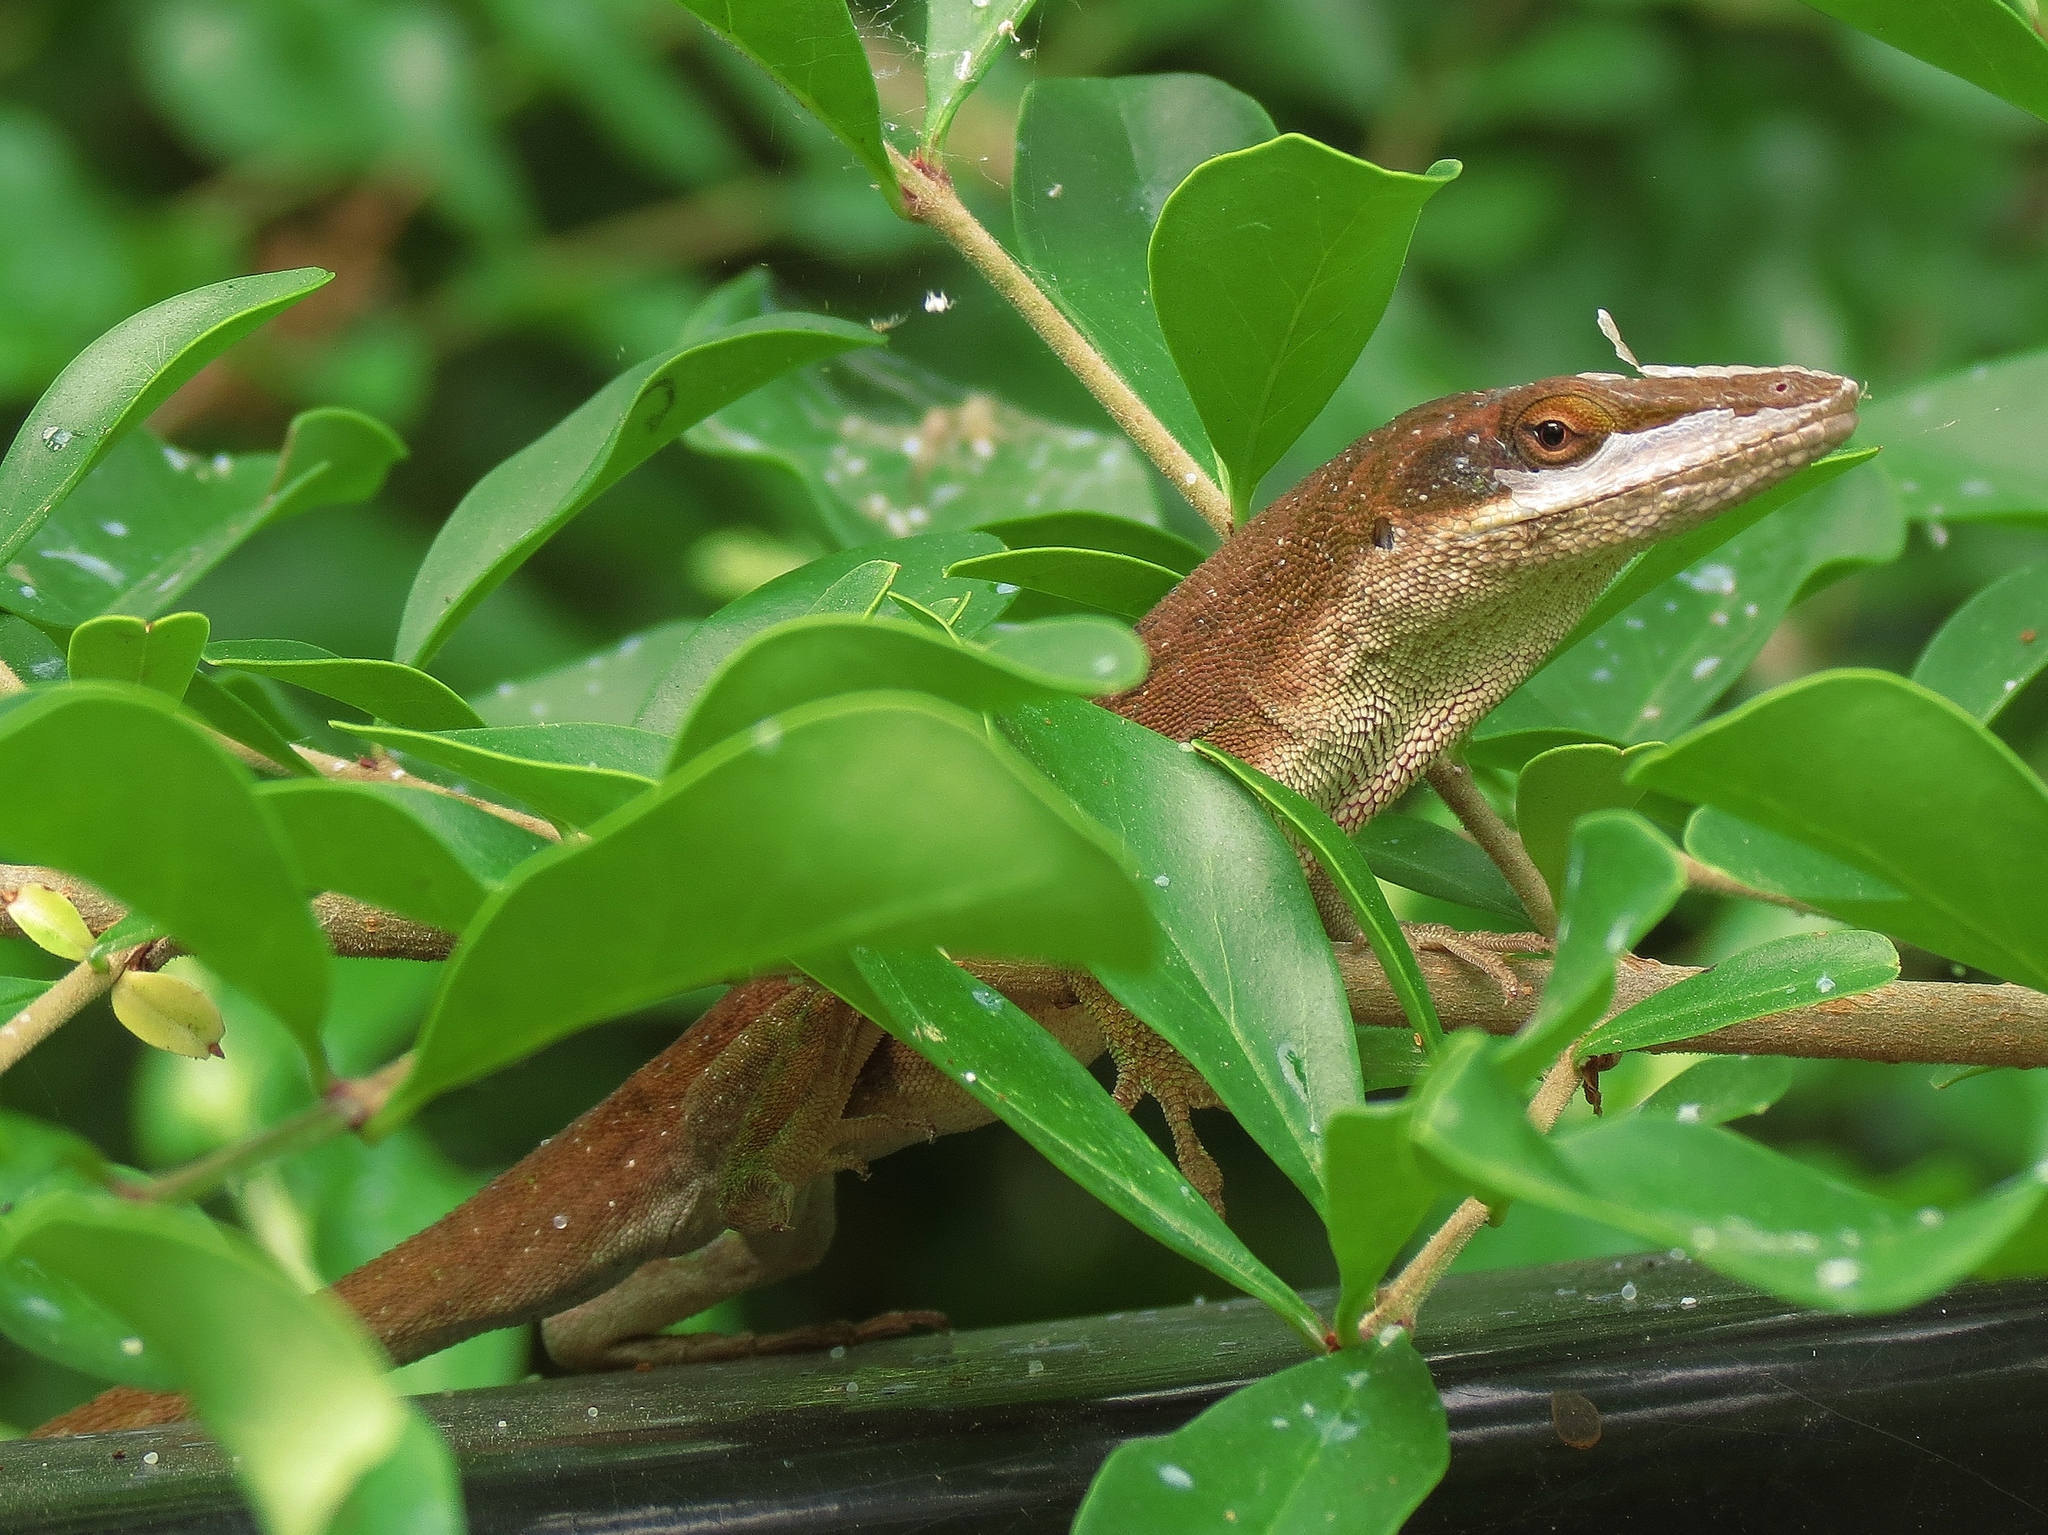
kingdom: Animalia
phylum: Chordata
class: Squamata
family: Dactyloidae
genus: Anolis
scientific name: Anolis carolinensis
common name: Green anole
